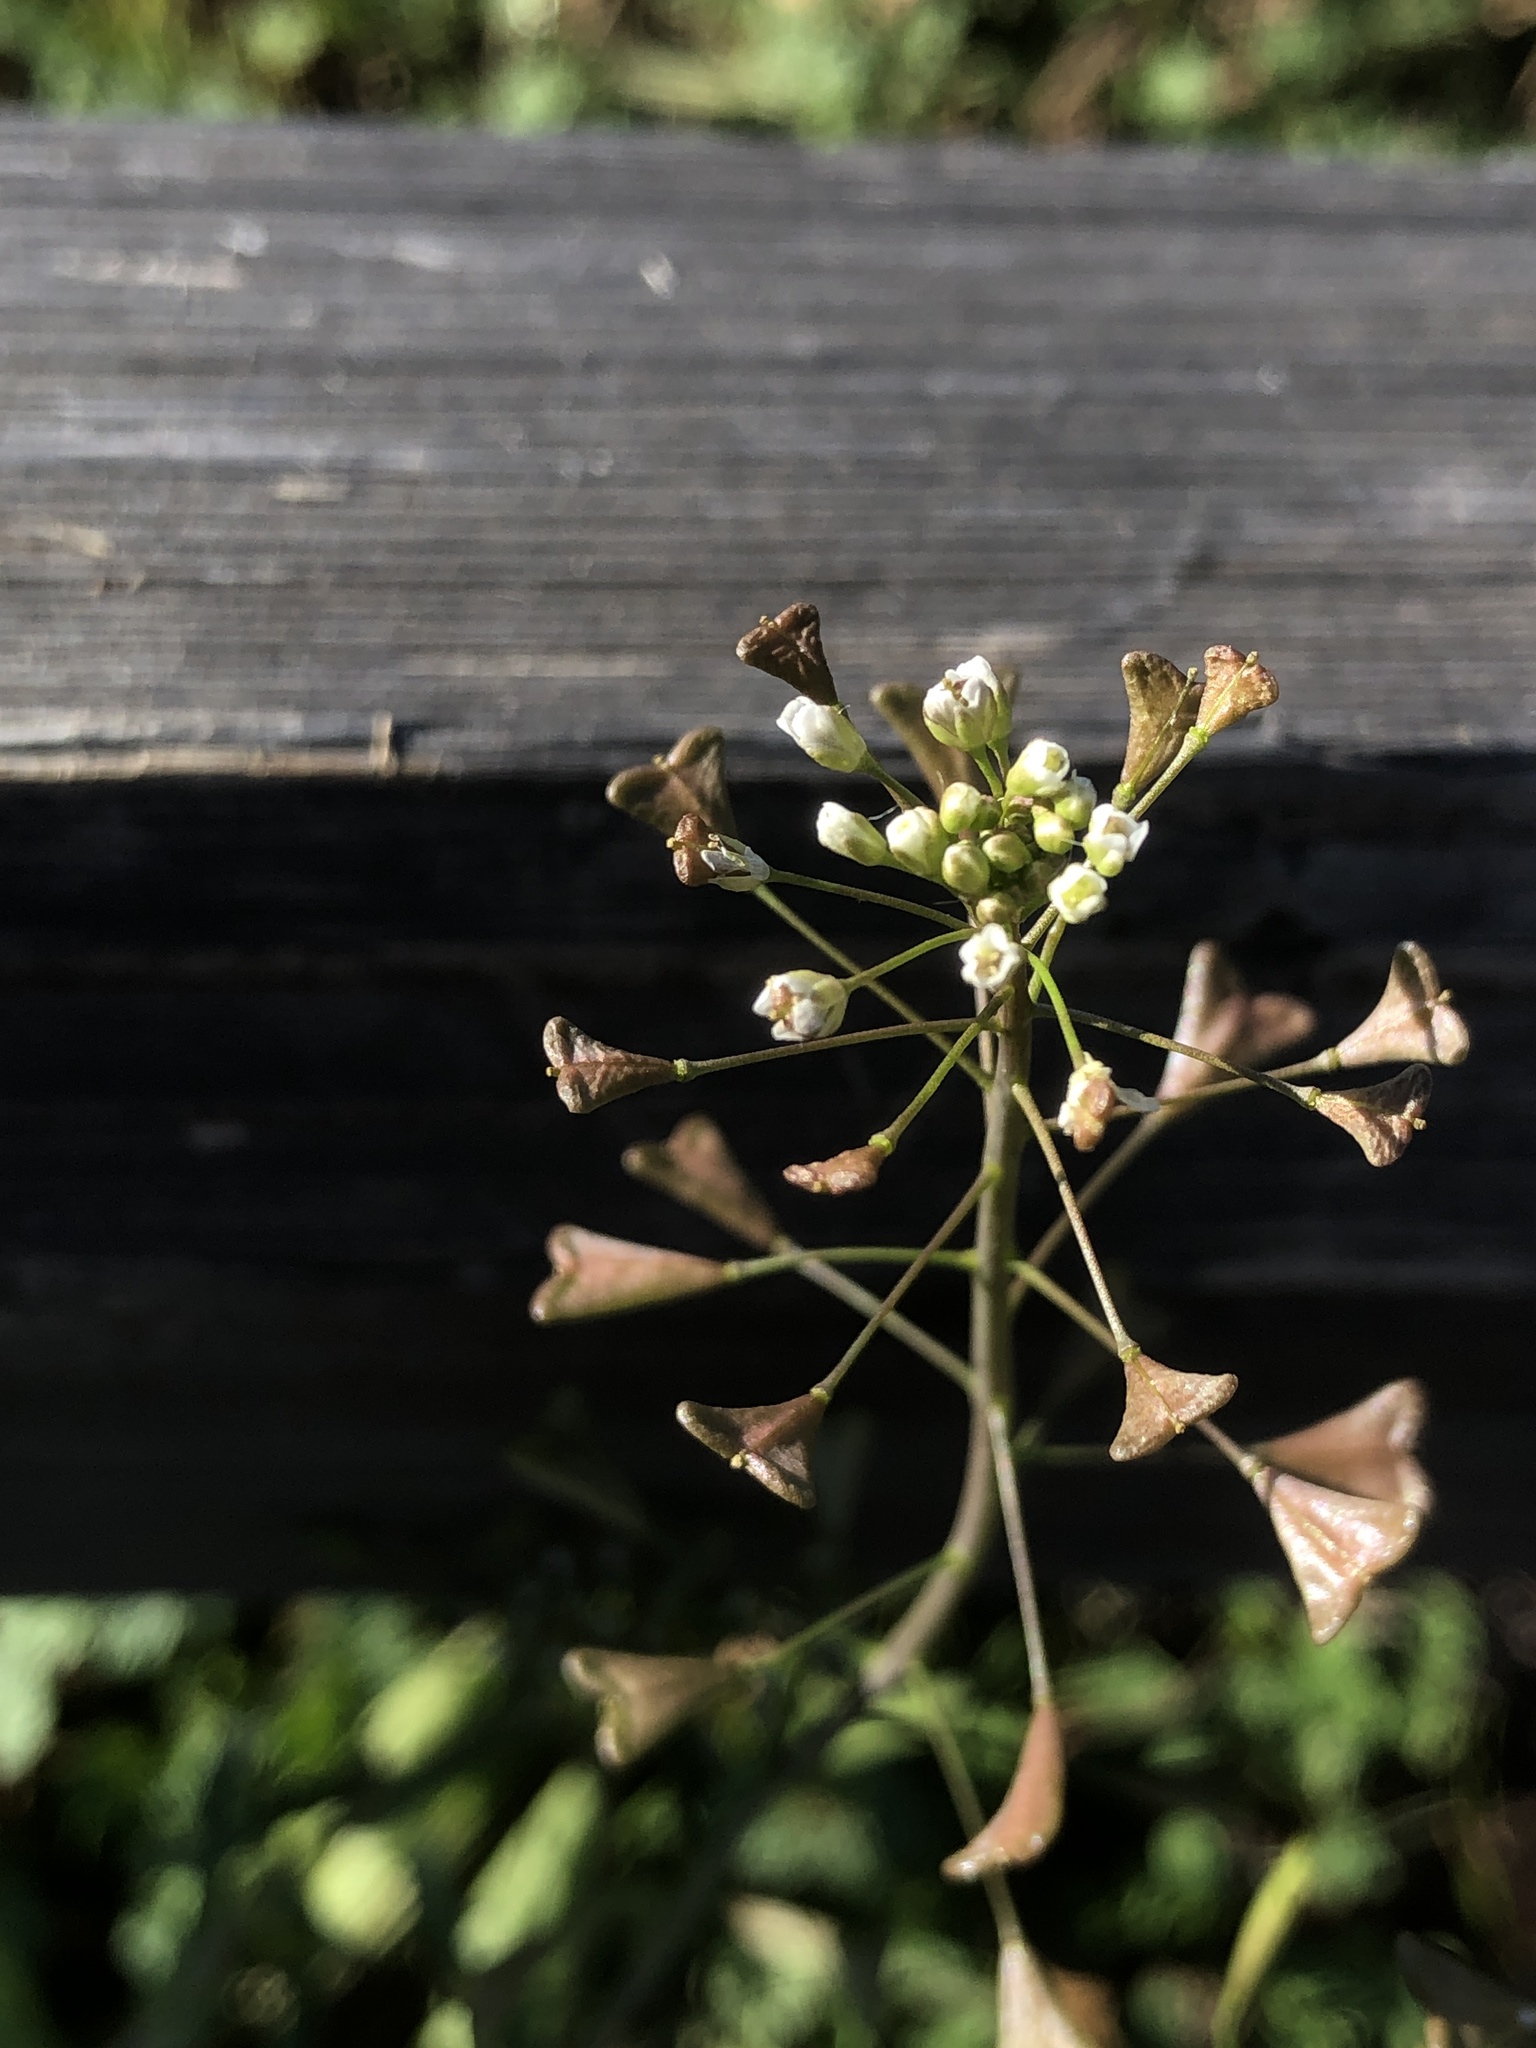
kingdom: Plantae
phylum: Tracheophyta
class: Magnoliopsida
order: Brassicales
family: Brassicaceae
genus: Capsella
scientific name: Capsella bursa-pastoris
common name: Shepherd's purse
